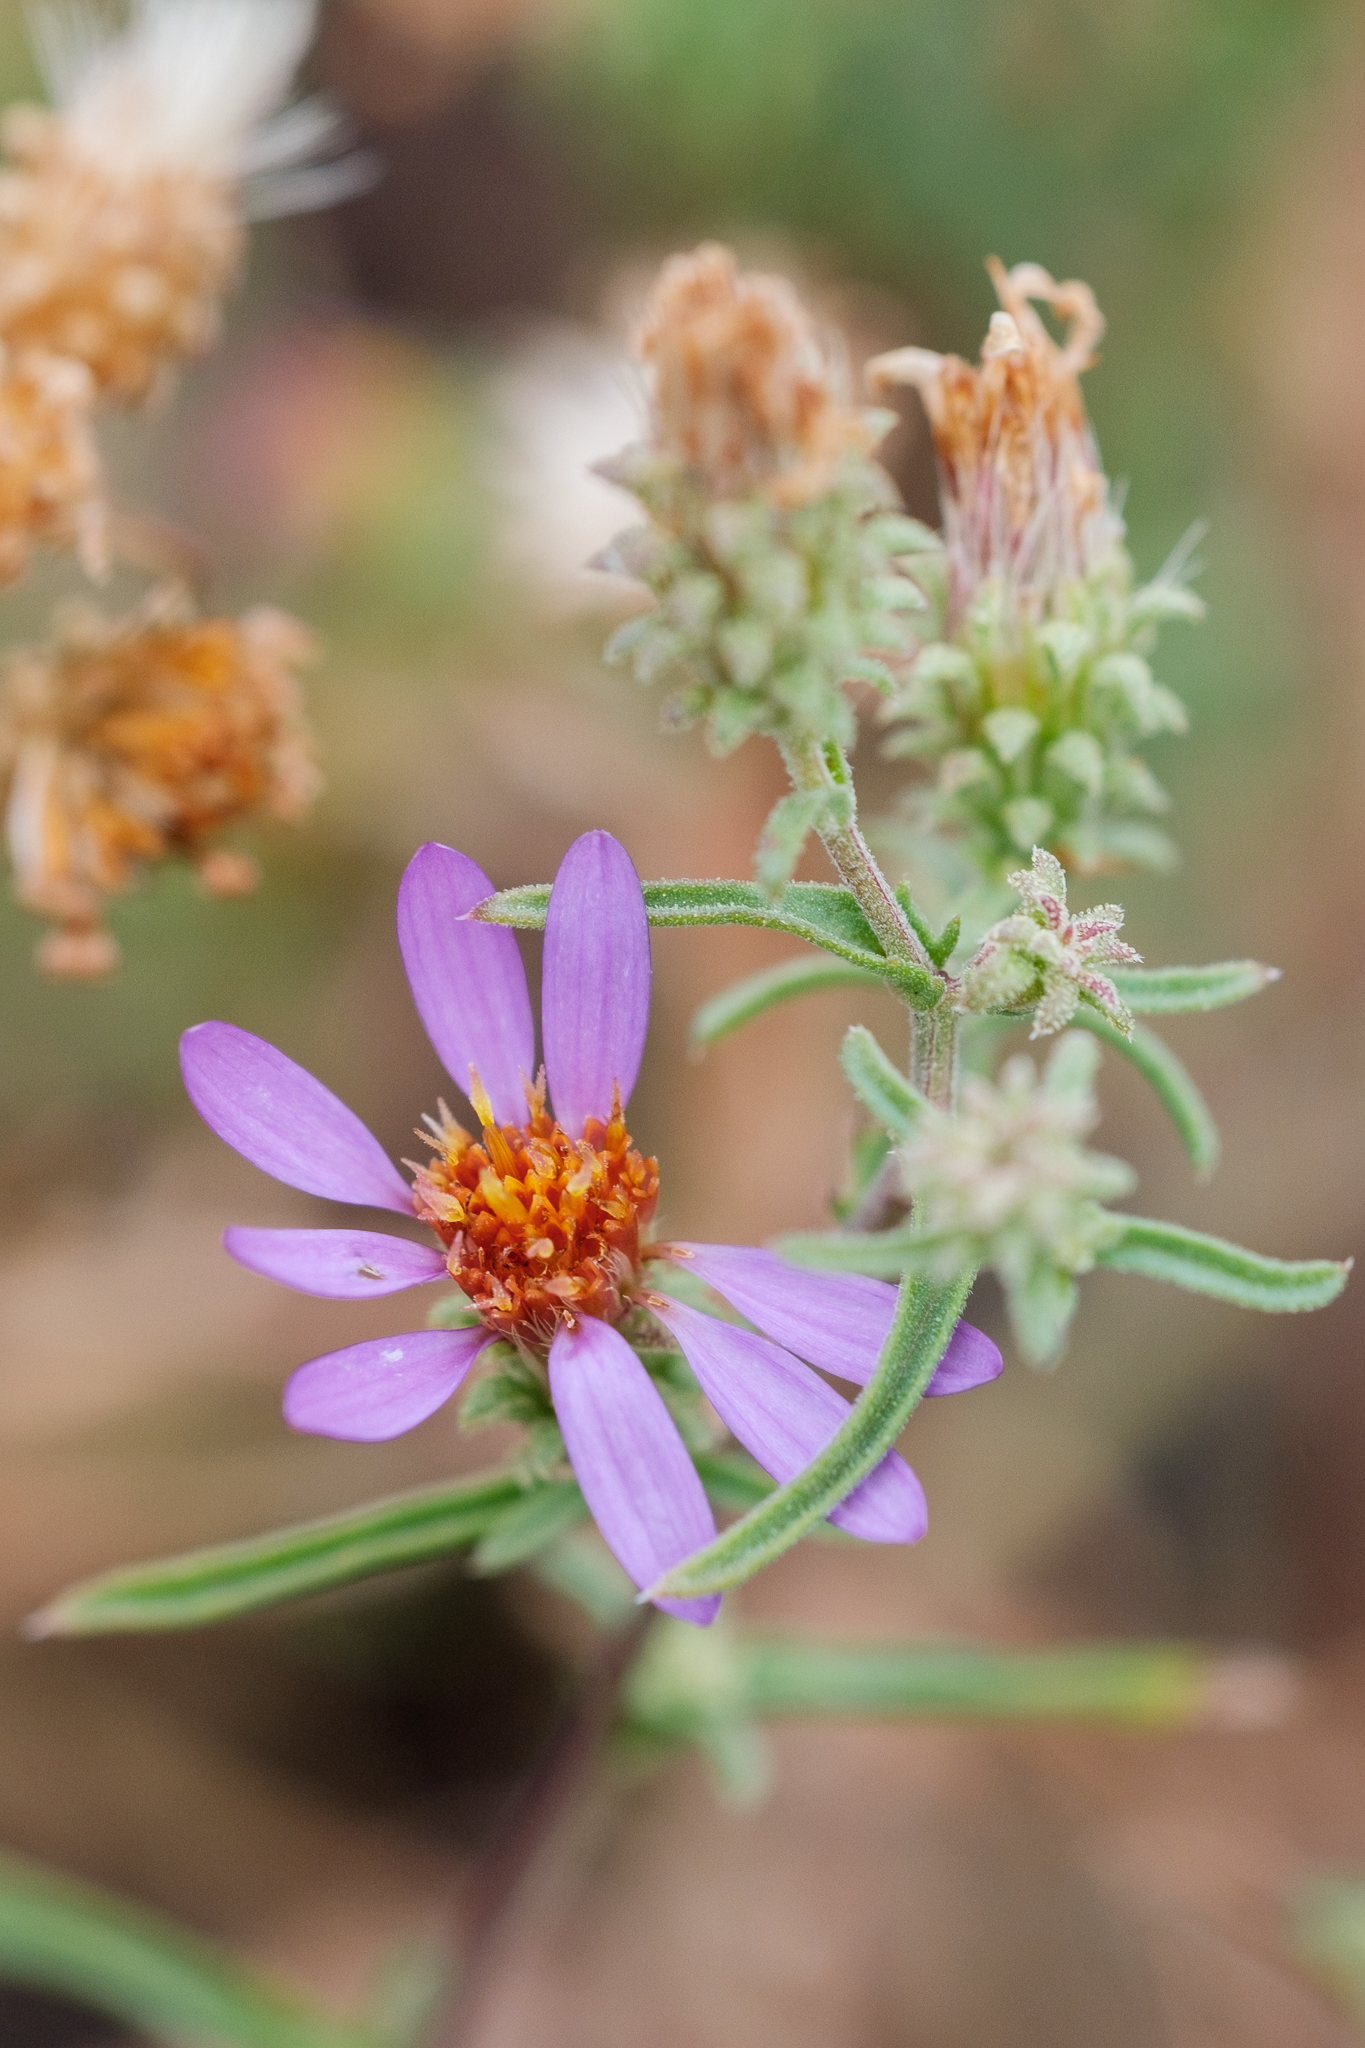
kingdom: Plantae
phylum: Tracheophyta
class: Magnoliopsida
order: Asterales
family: Asteraceae
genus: Dieteria
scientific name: Dieteria canescens
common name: Hoary-aster
